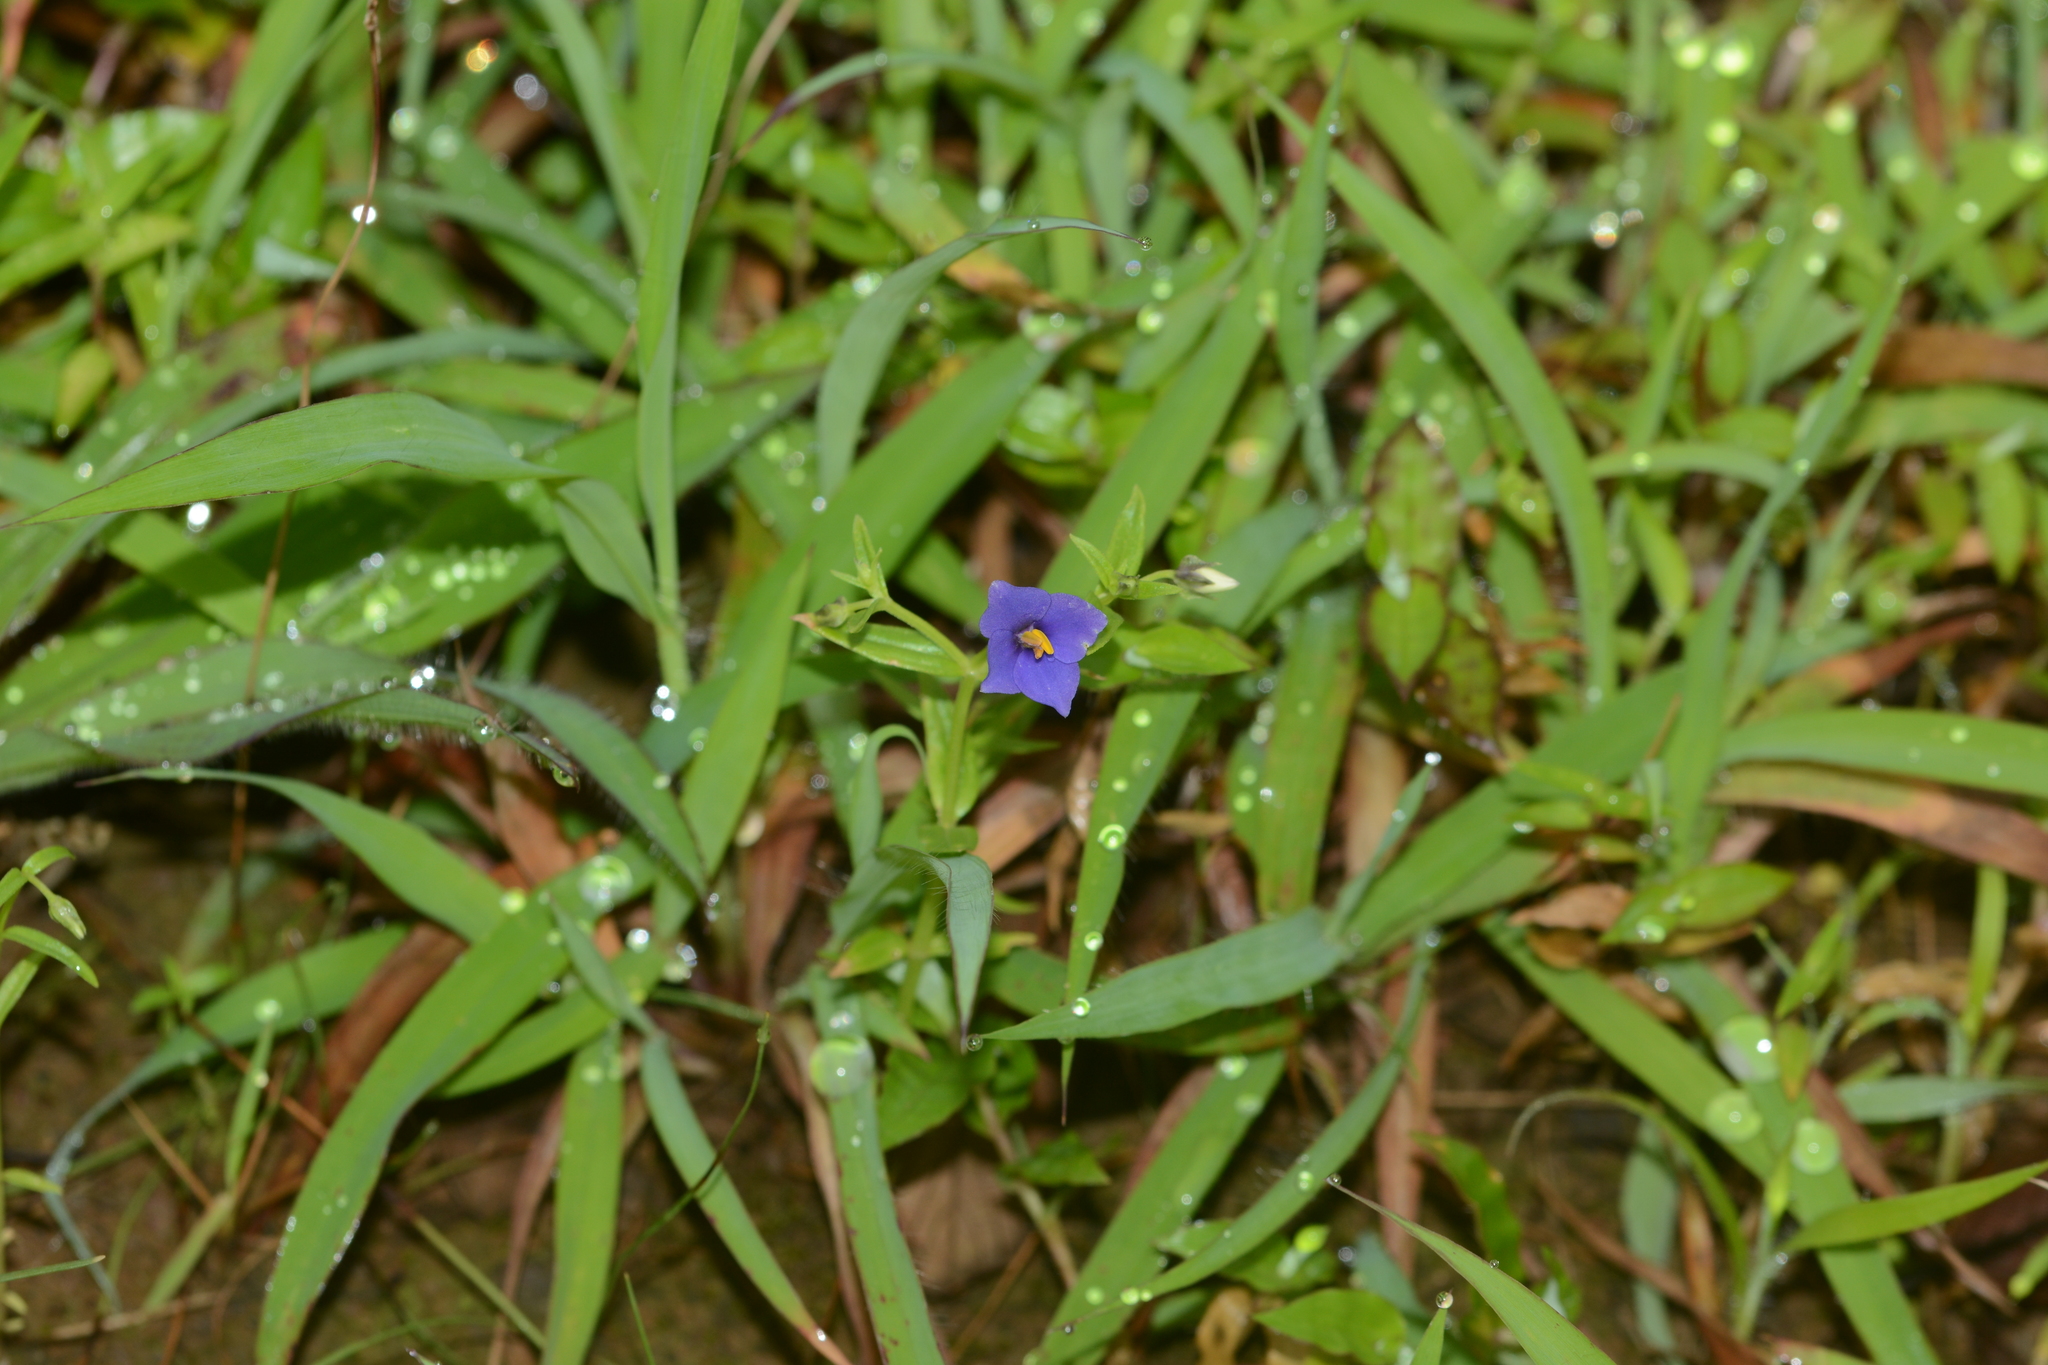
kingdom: Plantae
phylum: Tracheophyta
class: Magnoliopsida
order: Gentianales
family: Gentianaceae
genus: Exacum
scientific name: Exacum pumilum
